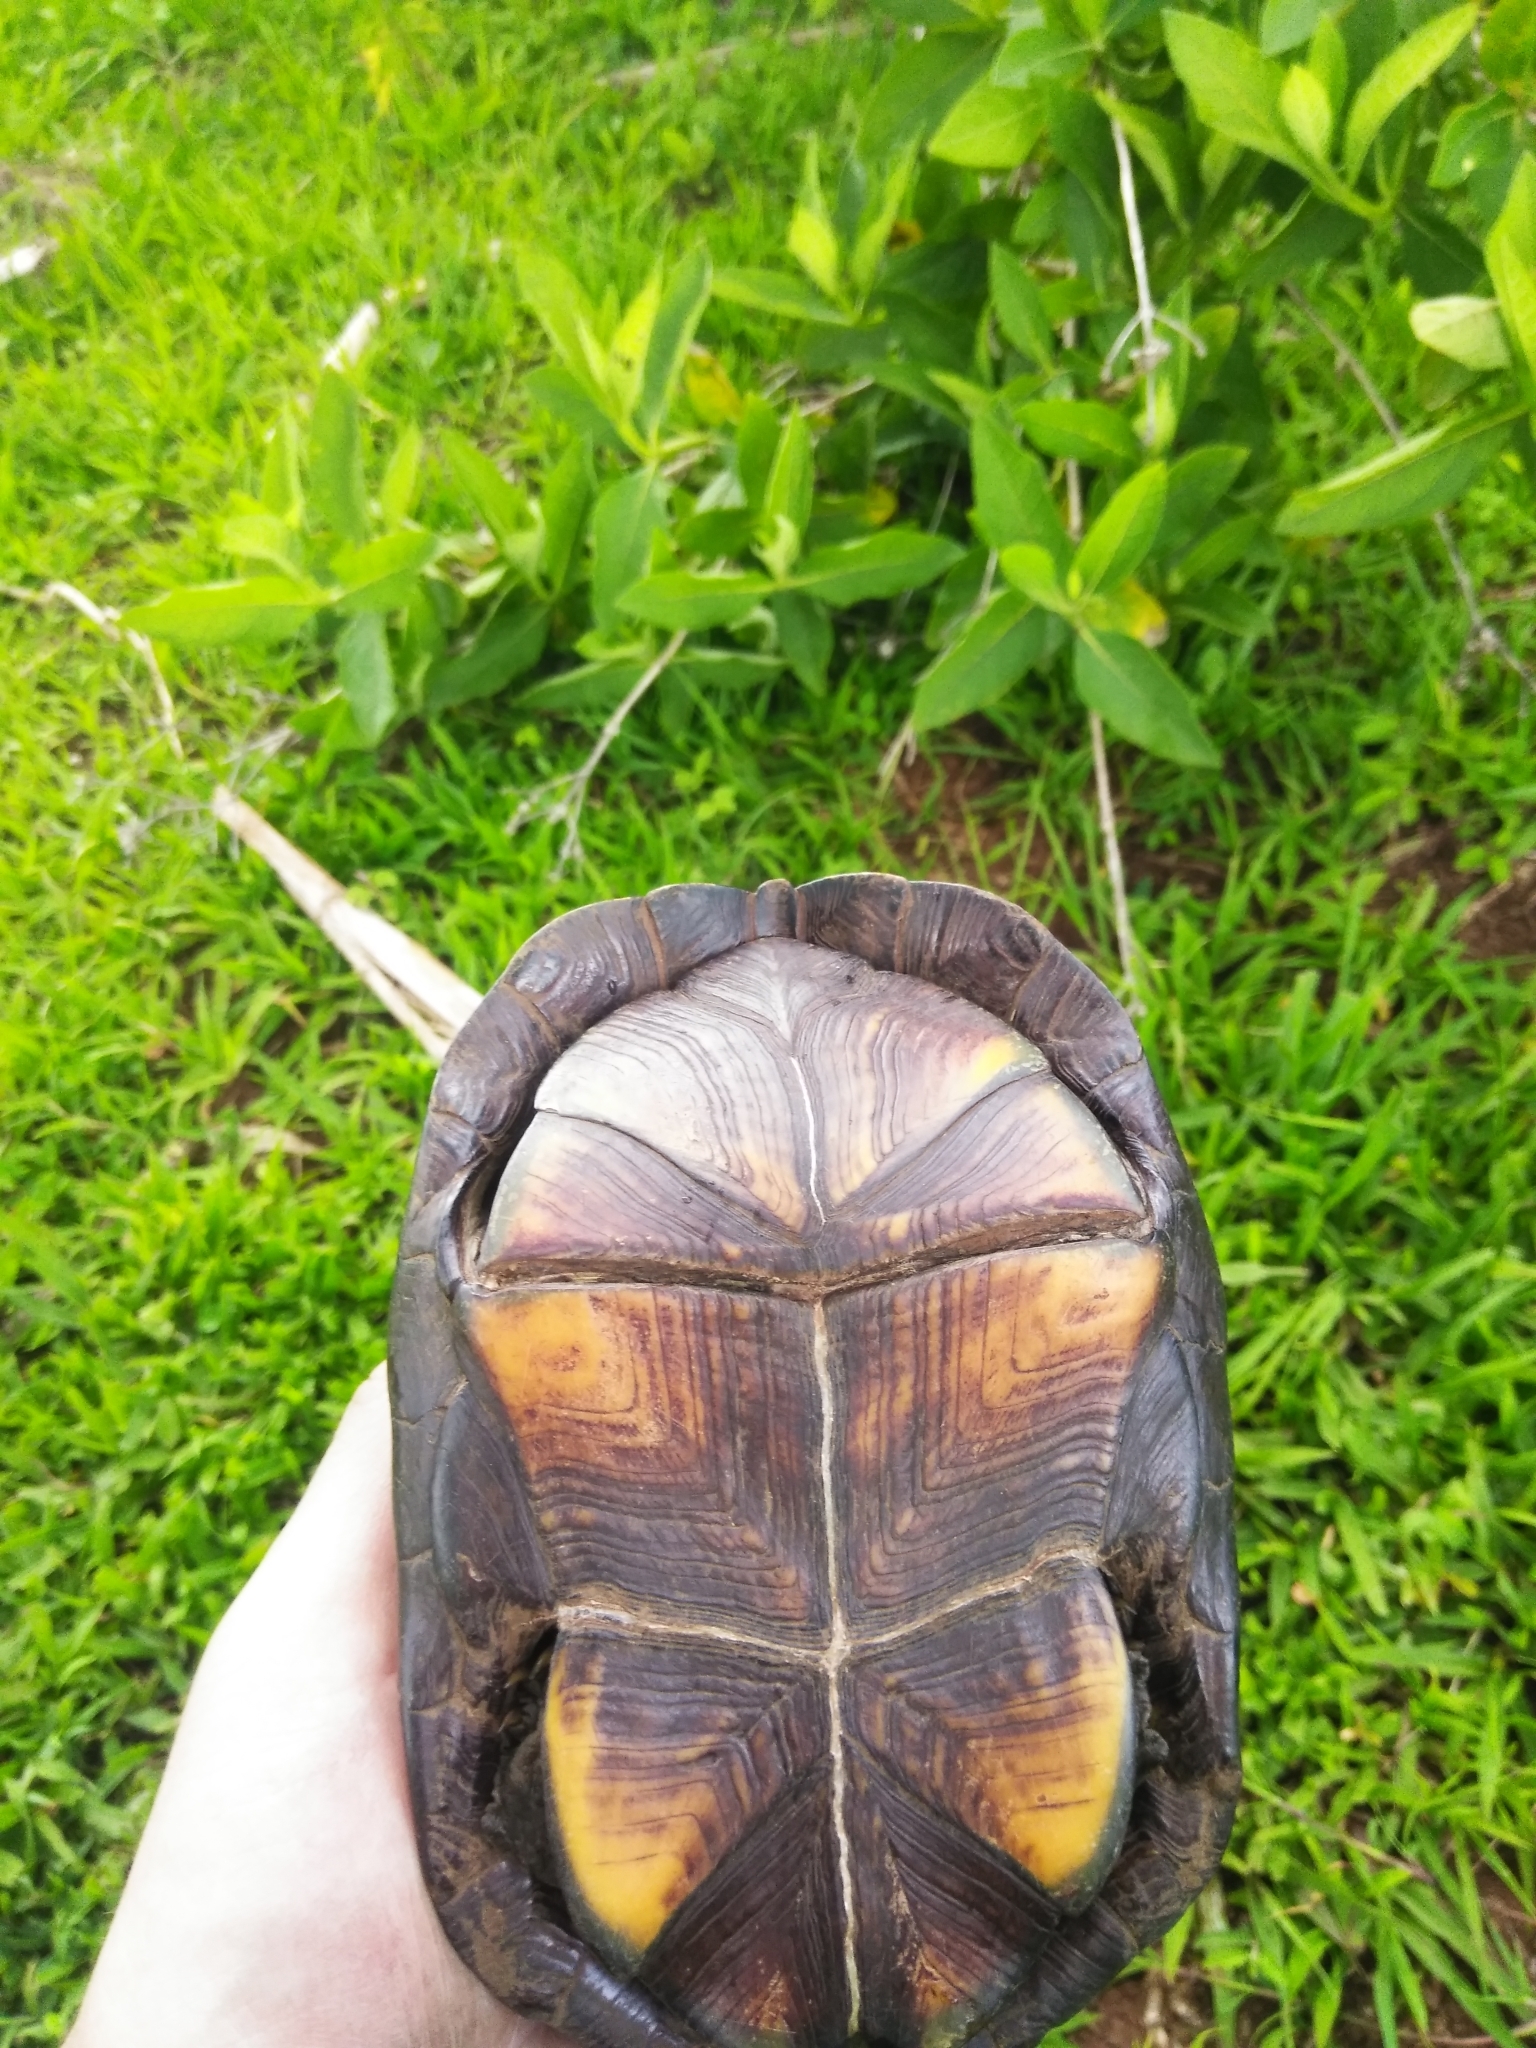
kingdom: Animalia
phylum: Chordata
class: Testudines
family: Kinosternidae
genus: Kinosternon
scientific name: Kinosternon integrum
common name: Mexican mud turtle
